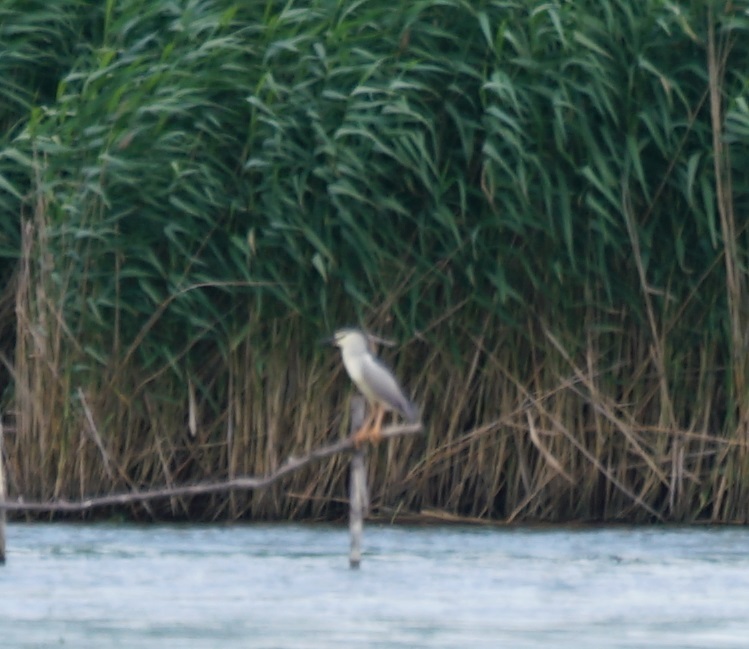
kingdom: Animalia
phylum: Chordata
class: Aves
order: Pelecaniformes
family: Ardeidae
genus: Nycticorax
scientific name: Nycticorax nycticorax
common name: Black-crowned night heron
